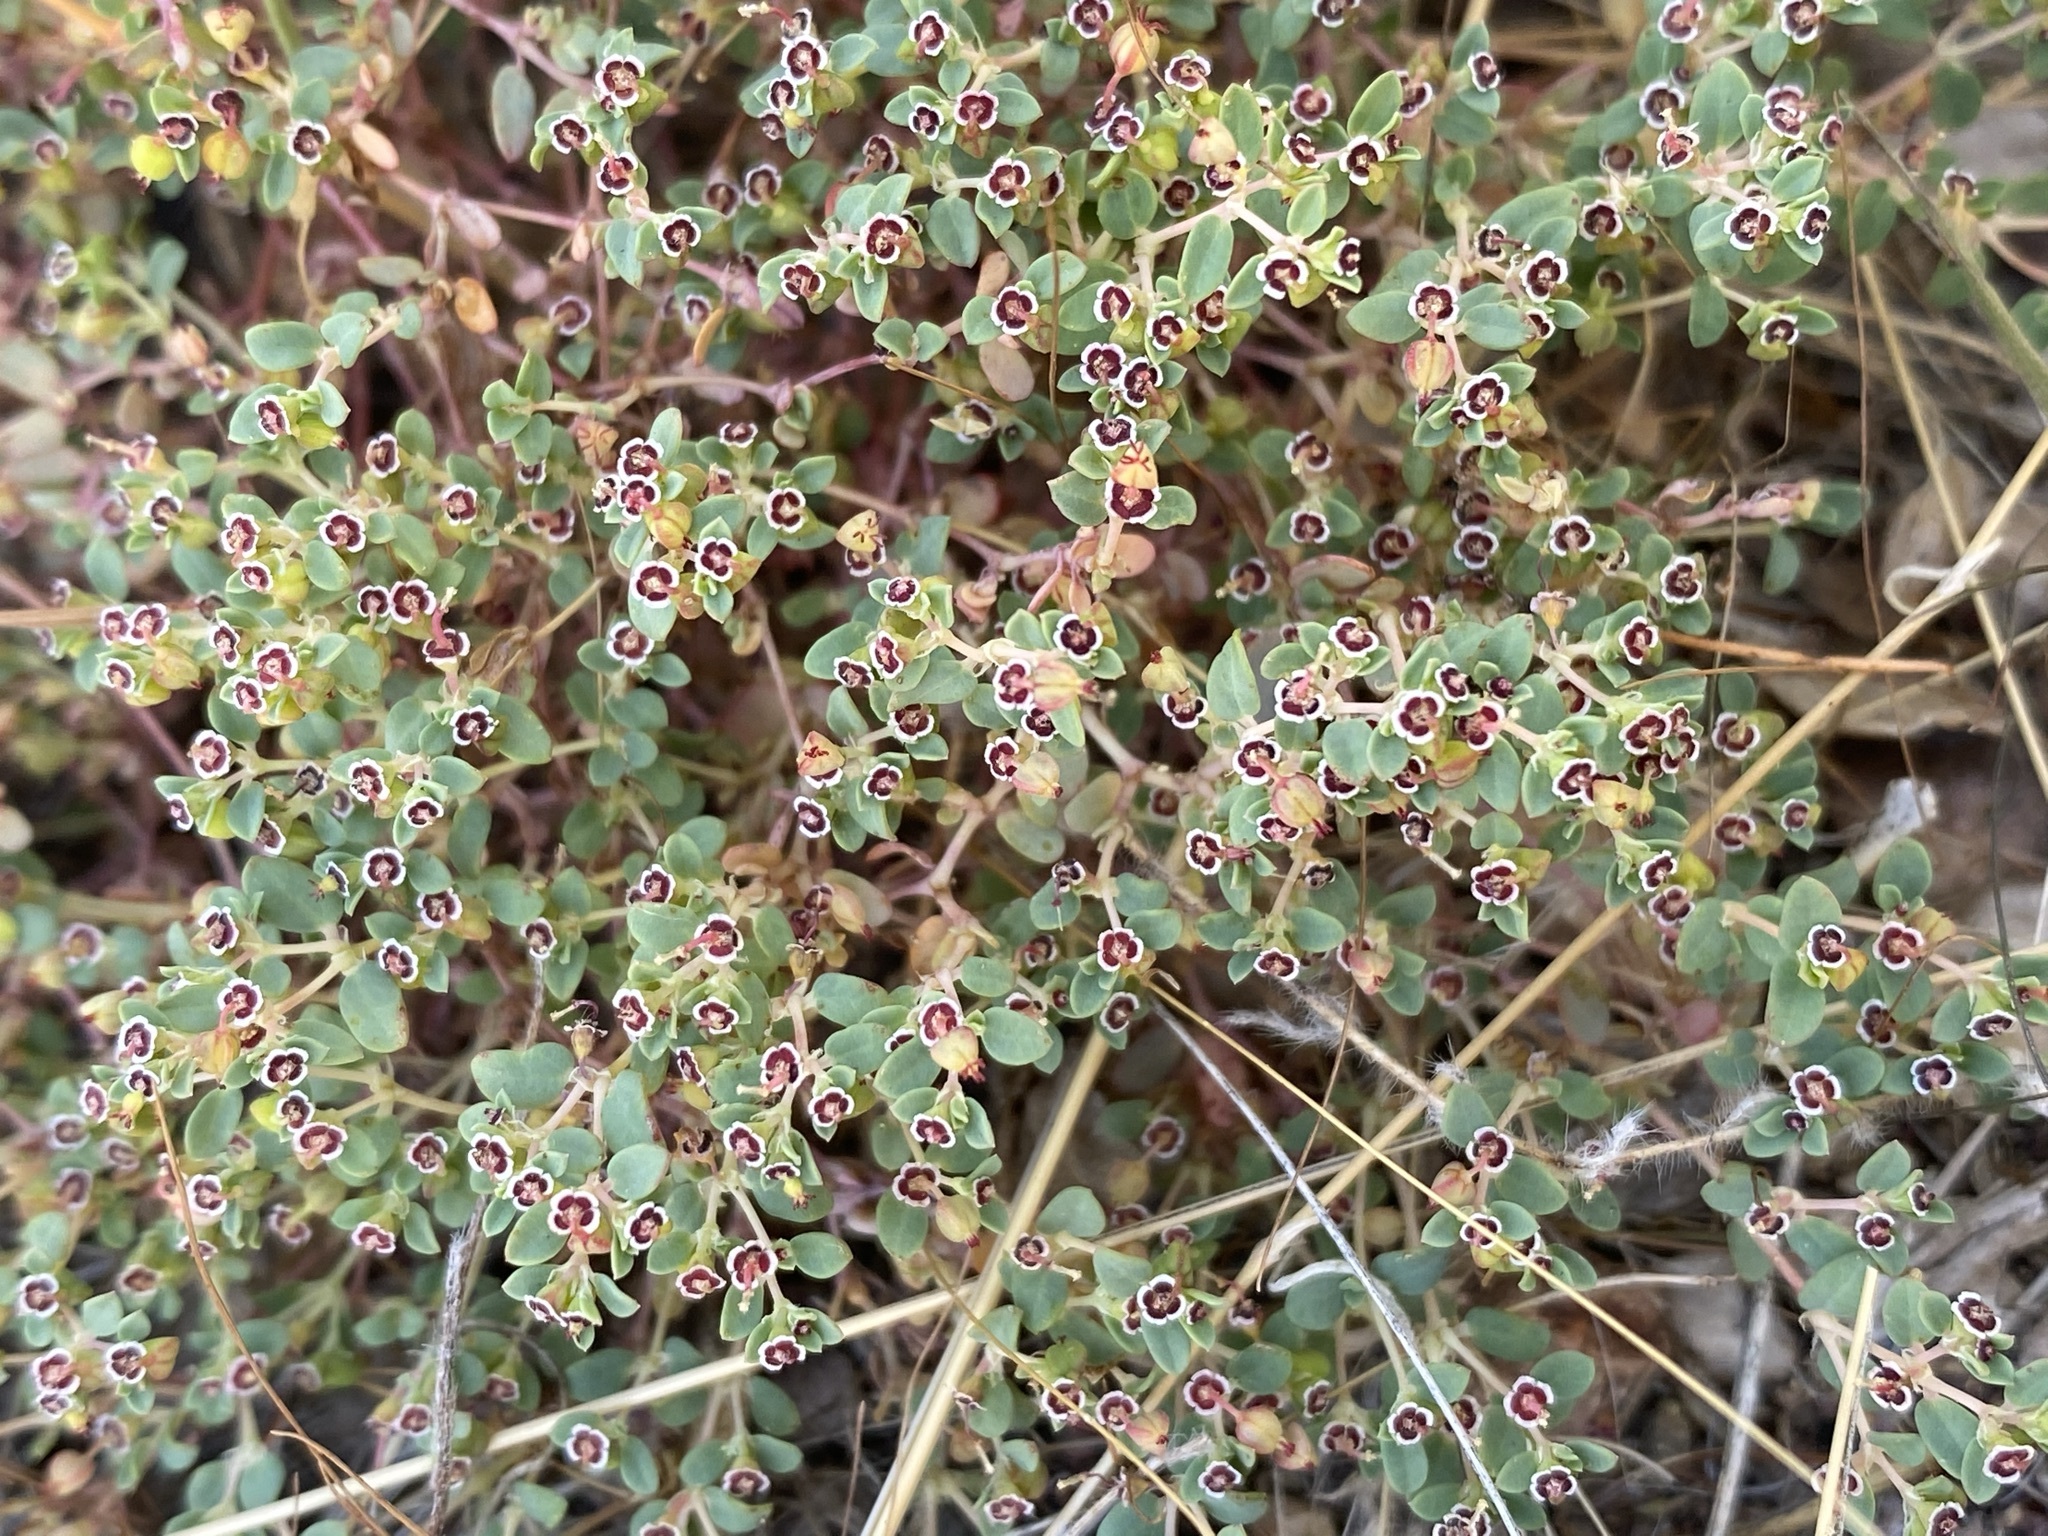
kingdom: Plantae
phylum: Tracheophyta
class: Magnoliopsida
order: Malpighiales
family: Euphorbiaceae
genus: Euphorbia
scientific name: Euphorbia polycarpa
